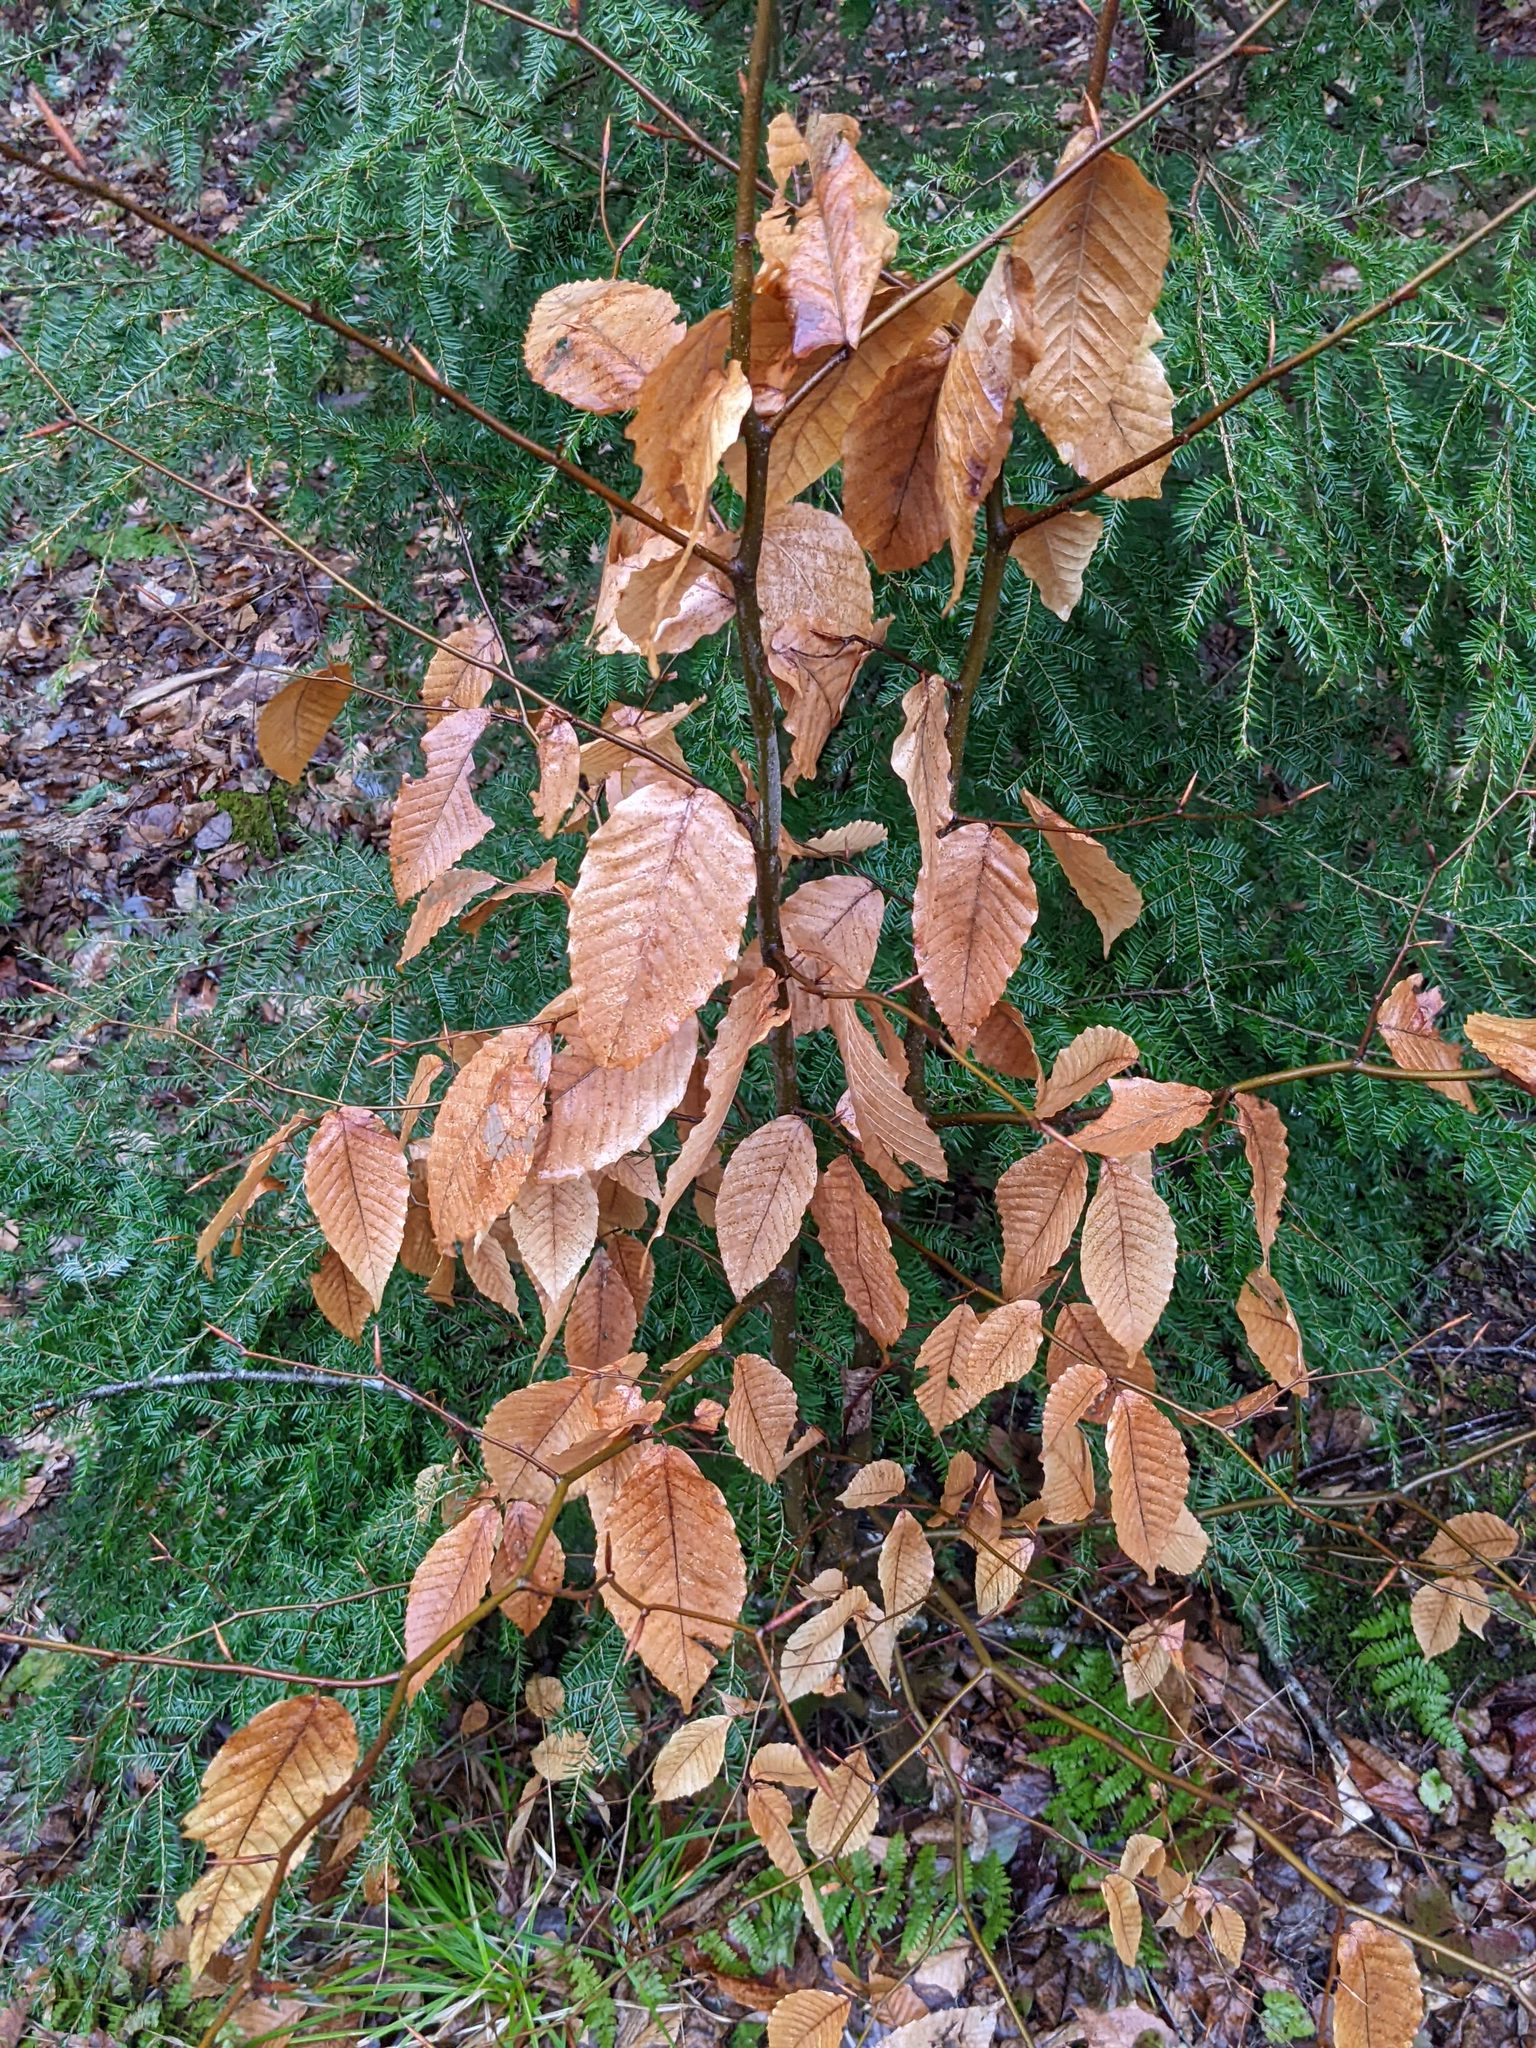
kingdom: Plantae
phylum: Tracheophyta
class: Magnoliopsida
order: Fagales
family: Fagaceae
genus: Fagus
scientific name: Fagus grandifolia
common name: American beech
